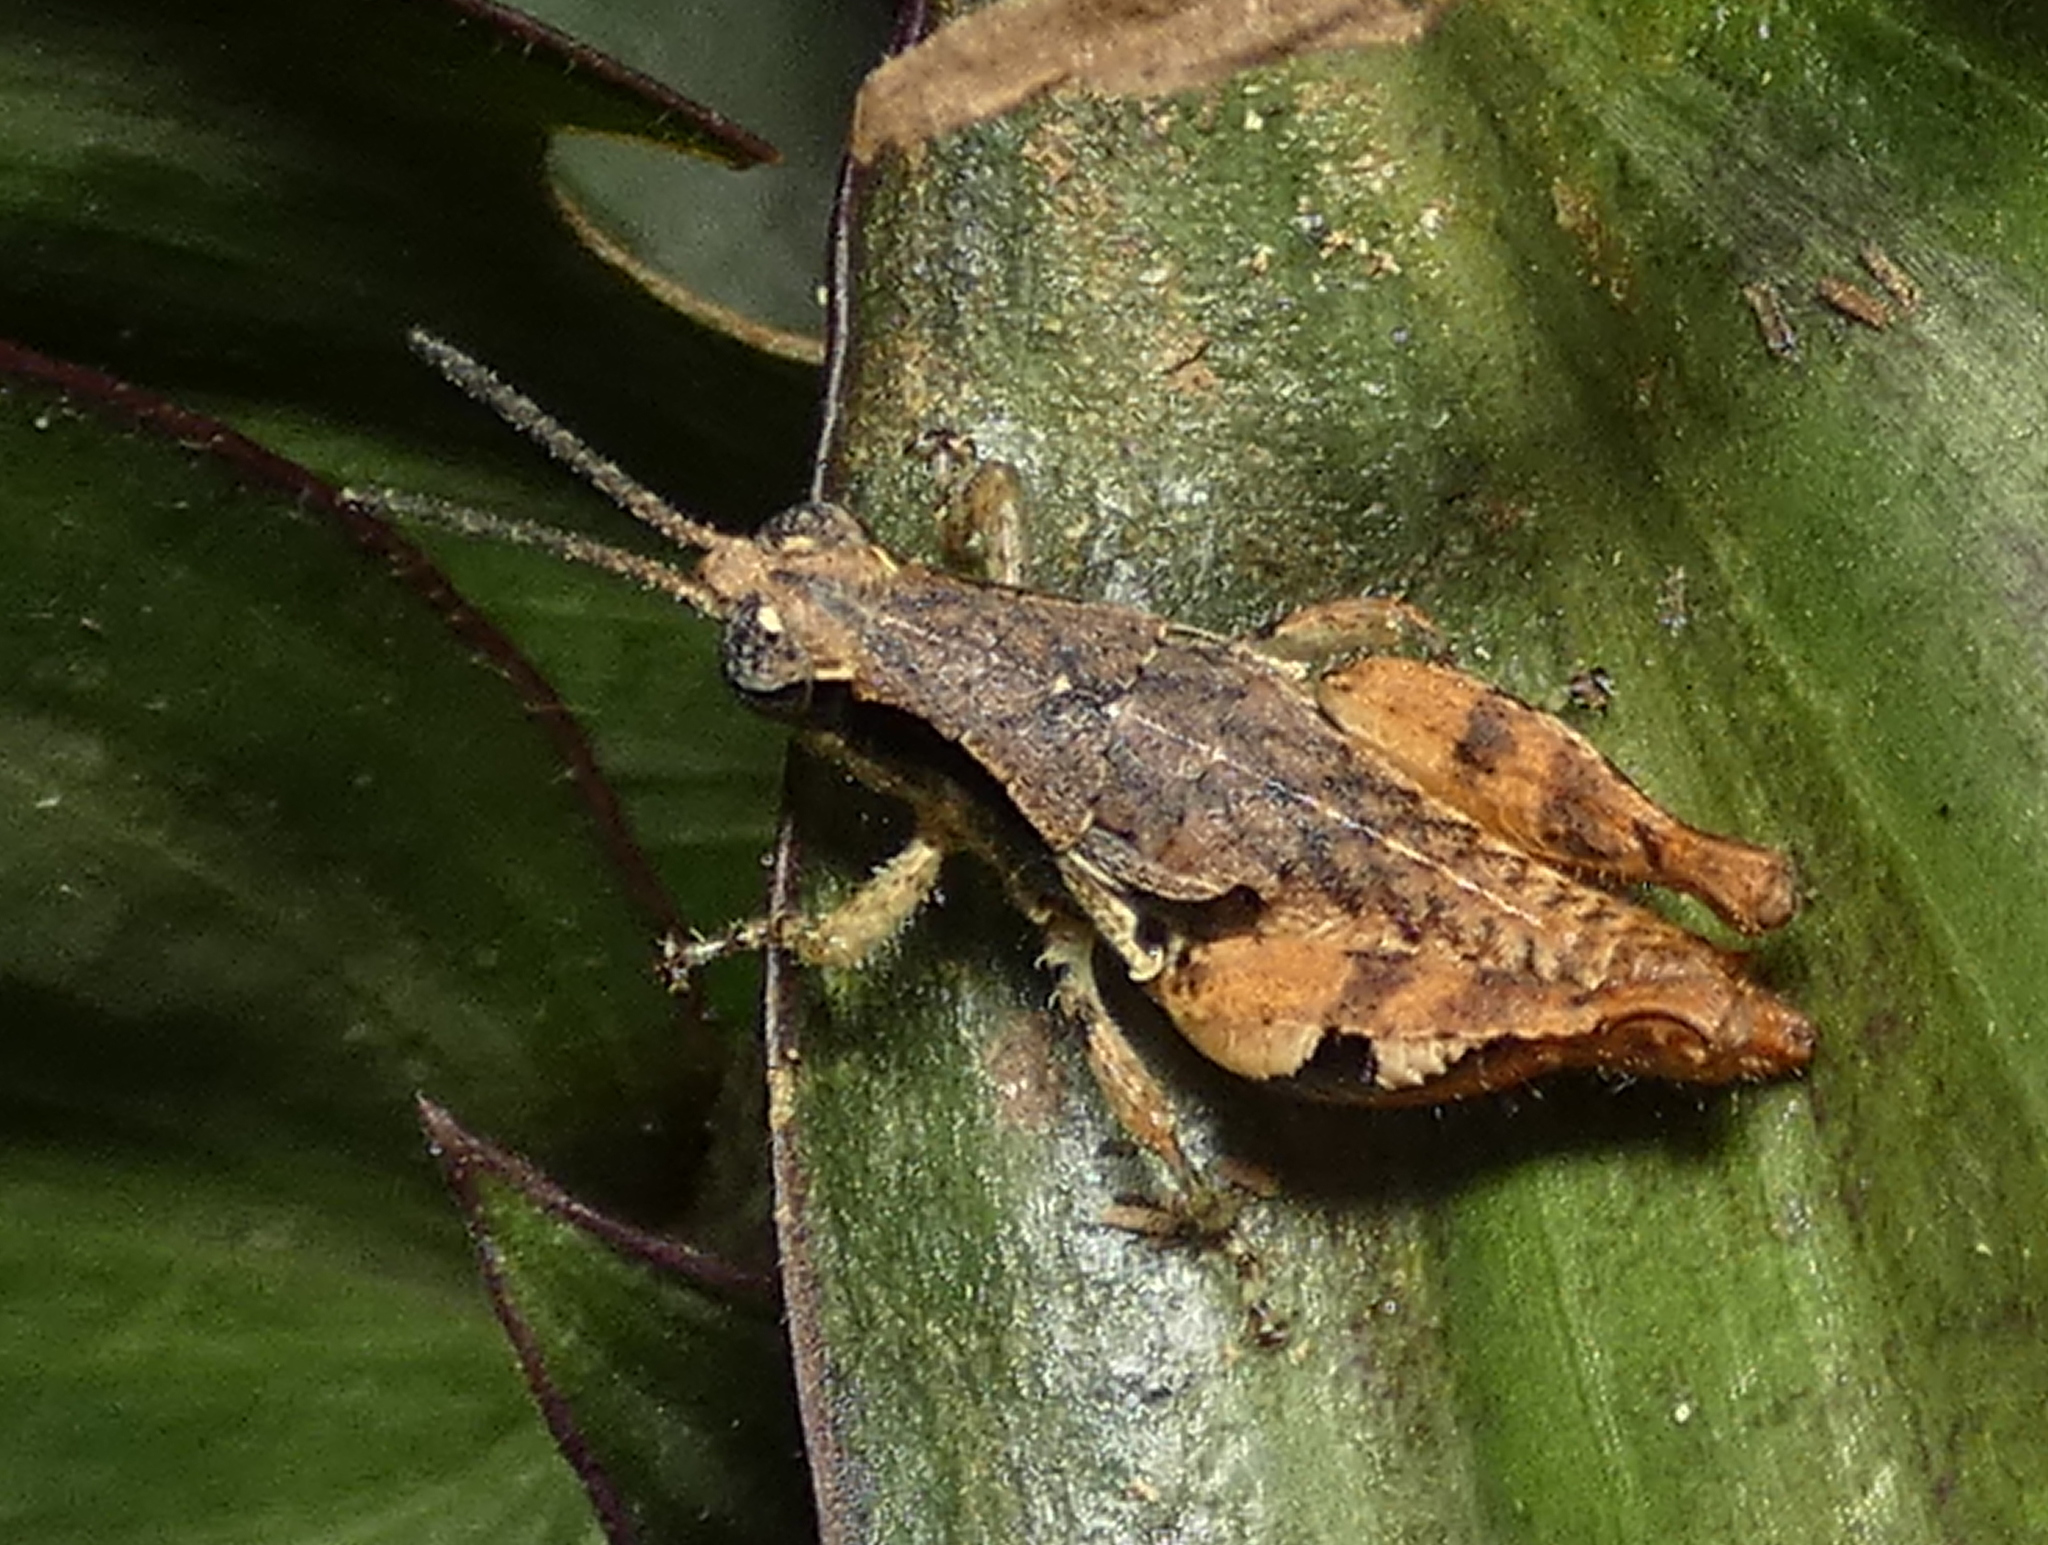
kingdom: Animalia
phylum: Arthropoda
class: Insecta
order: Orthoptera
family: Acrididae
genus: Eujivarus
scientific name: Eujivarus meridionalis
